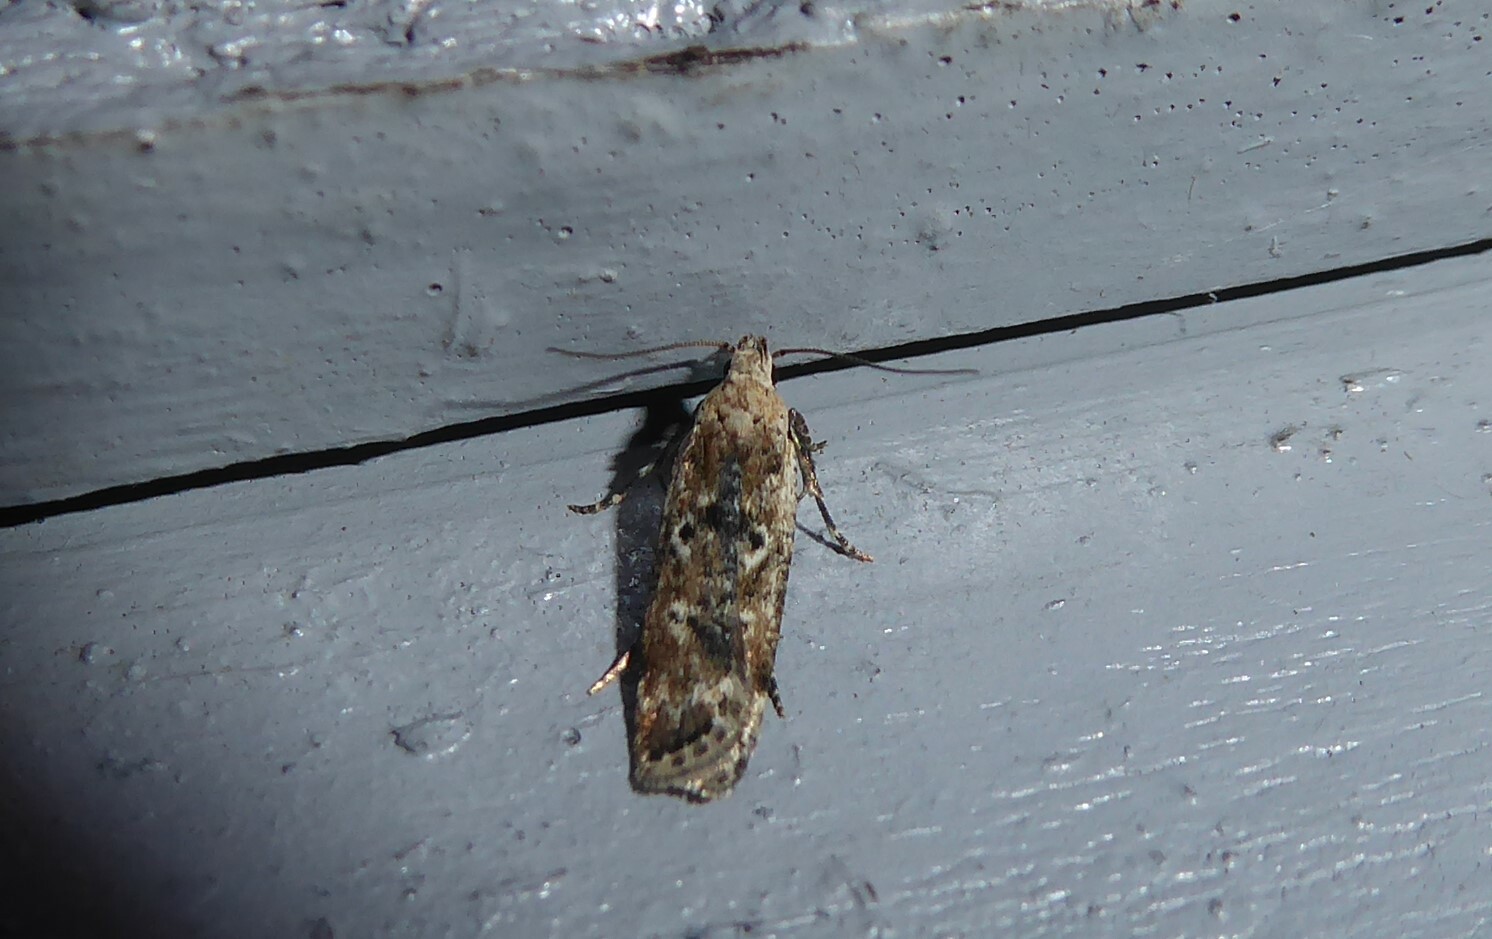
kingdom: Animalia
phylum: Arthropoda
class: Insecta
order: Lepidoptera
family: Gelechiidae
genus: Anisoplaca
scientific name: Anisoplaca achyrota
